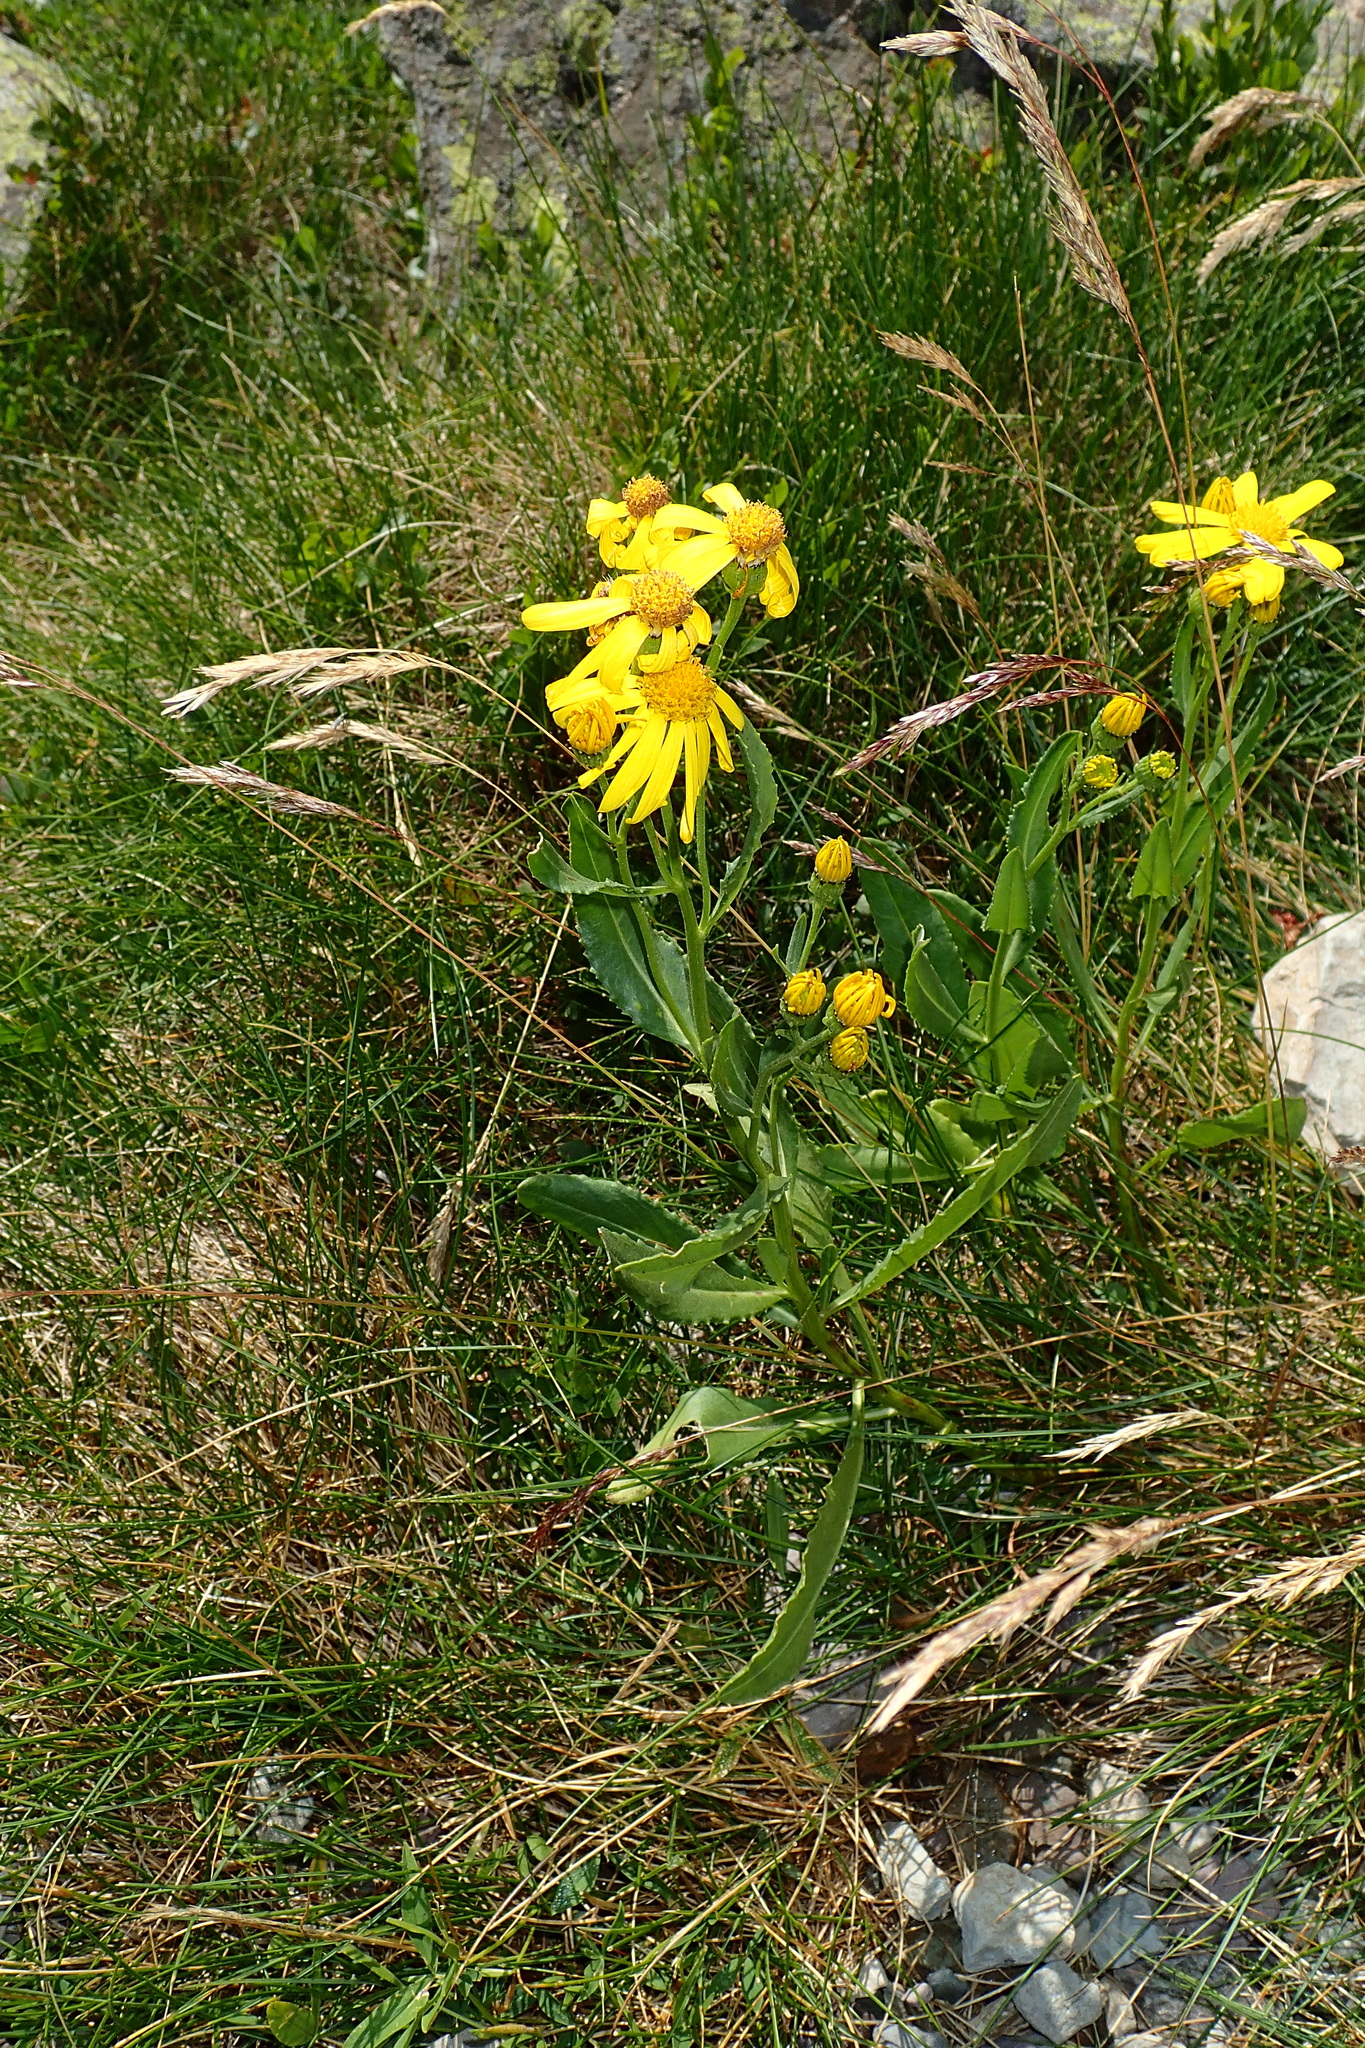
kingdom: Plantae
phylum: Tracheophyta
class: Magnoliopsida
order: Asterales
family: Asteraceae
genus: Senecio
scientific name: Senecio pyrenaicus
